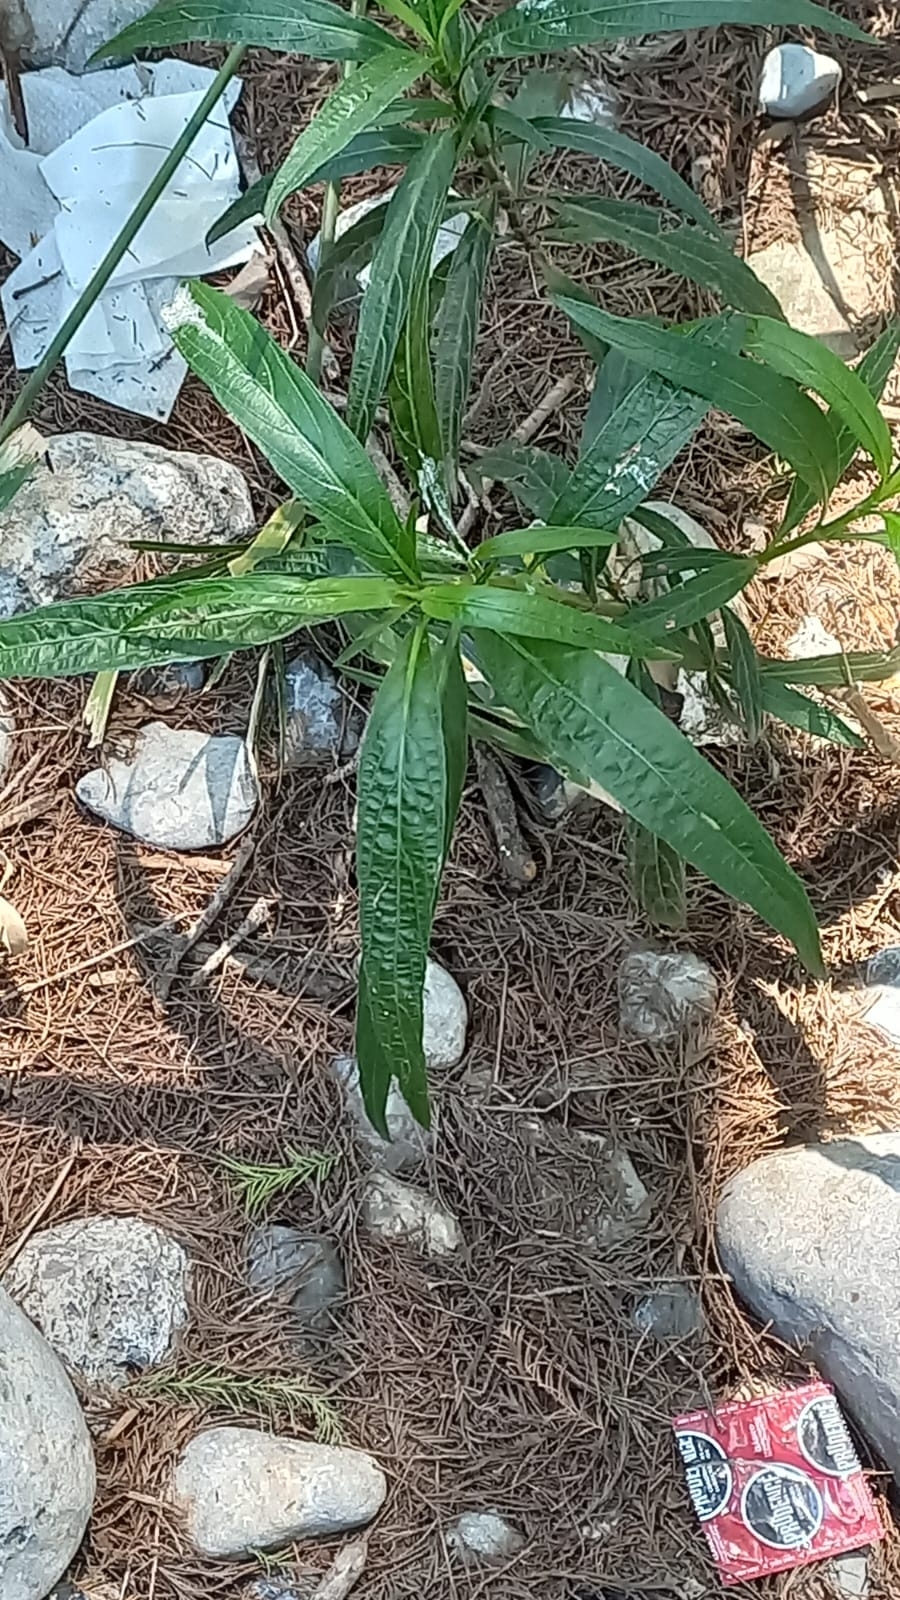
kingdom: Plantae
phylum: Tracheophyta
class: Magnoliopsida
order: Lamiales
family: Acanthaceae
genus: Ruellia
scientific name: Ruellia simplex
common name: Softseed wild petunia
